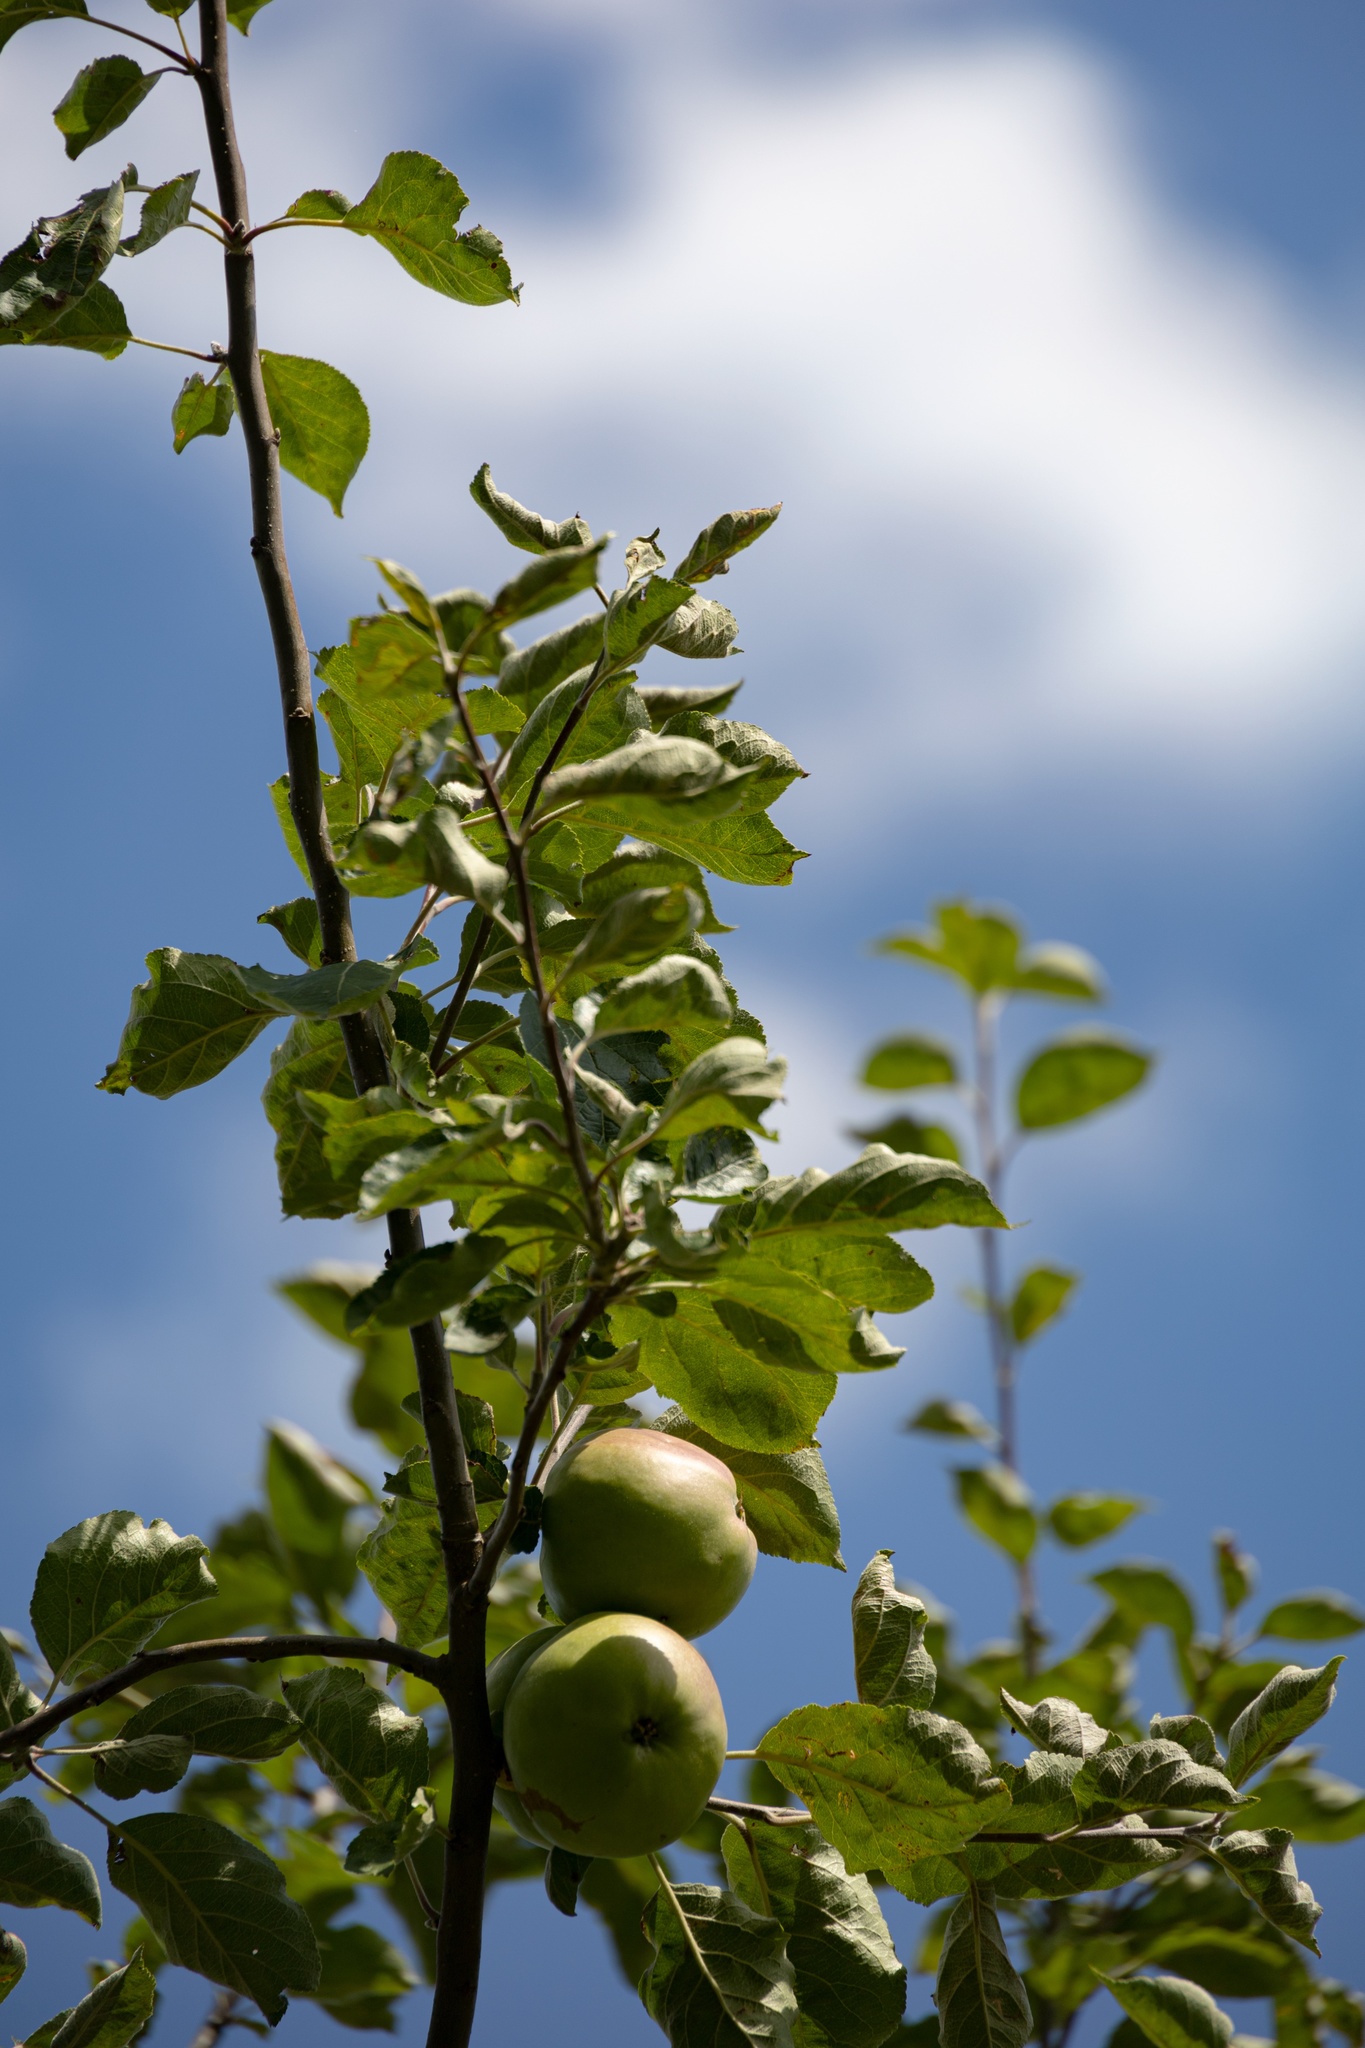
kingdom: Plantae
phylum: Tracheophyta
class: Magnoliopsida
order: Rosales
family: Rosaceae
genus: Malus
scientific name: Malus domestica
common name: Apple
